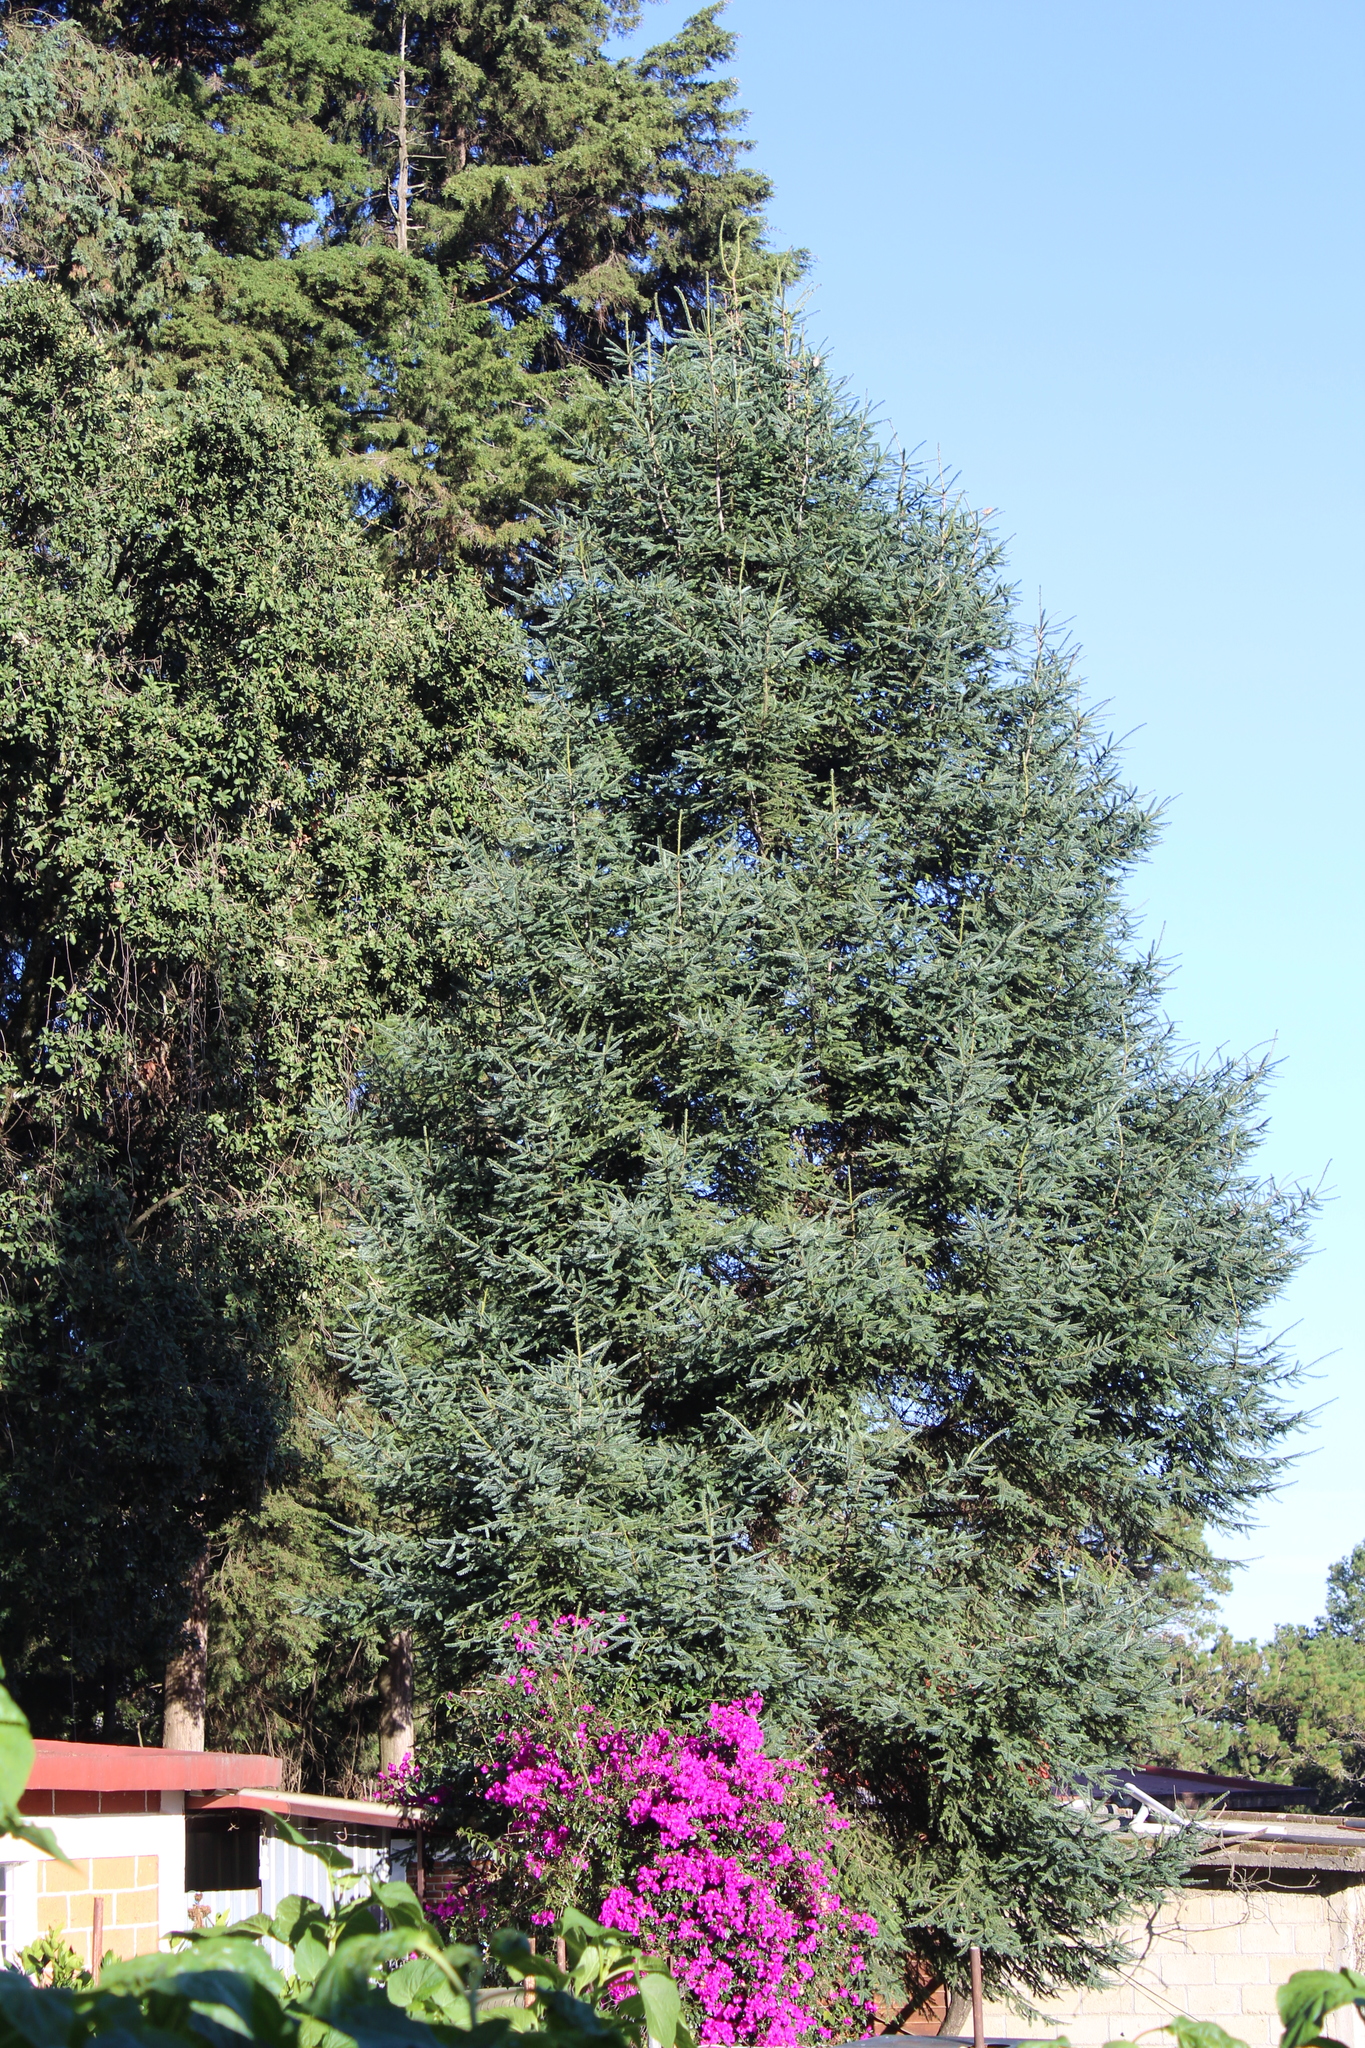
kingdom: Plantae
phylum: Tracheophyta
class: Pinopsida
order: Pinales
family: Pinaceae
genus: Abies
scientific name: Abies religiosa
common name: Sacred fir
